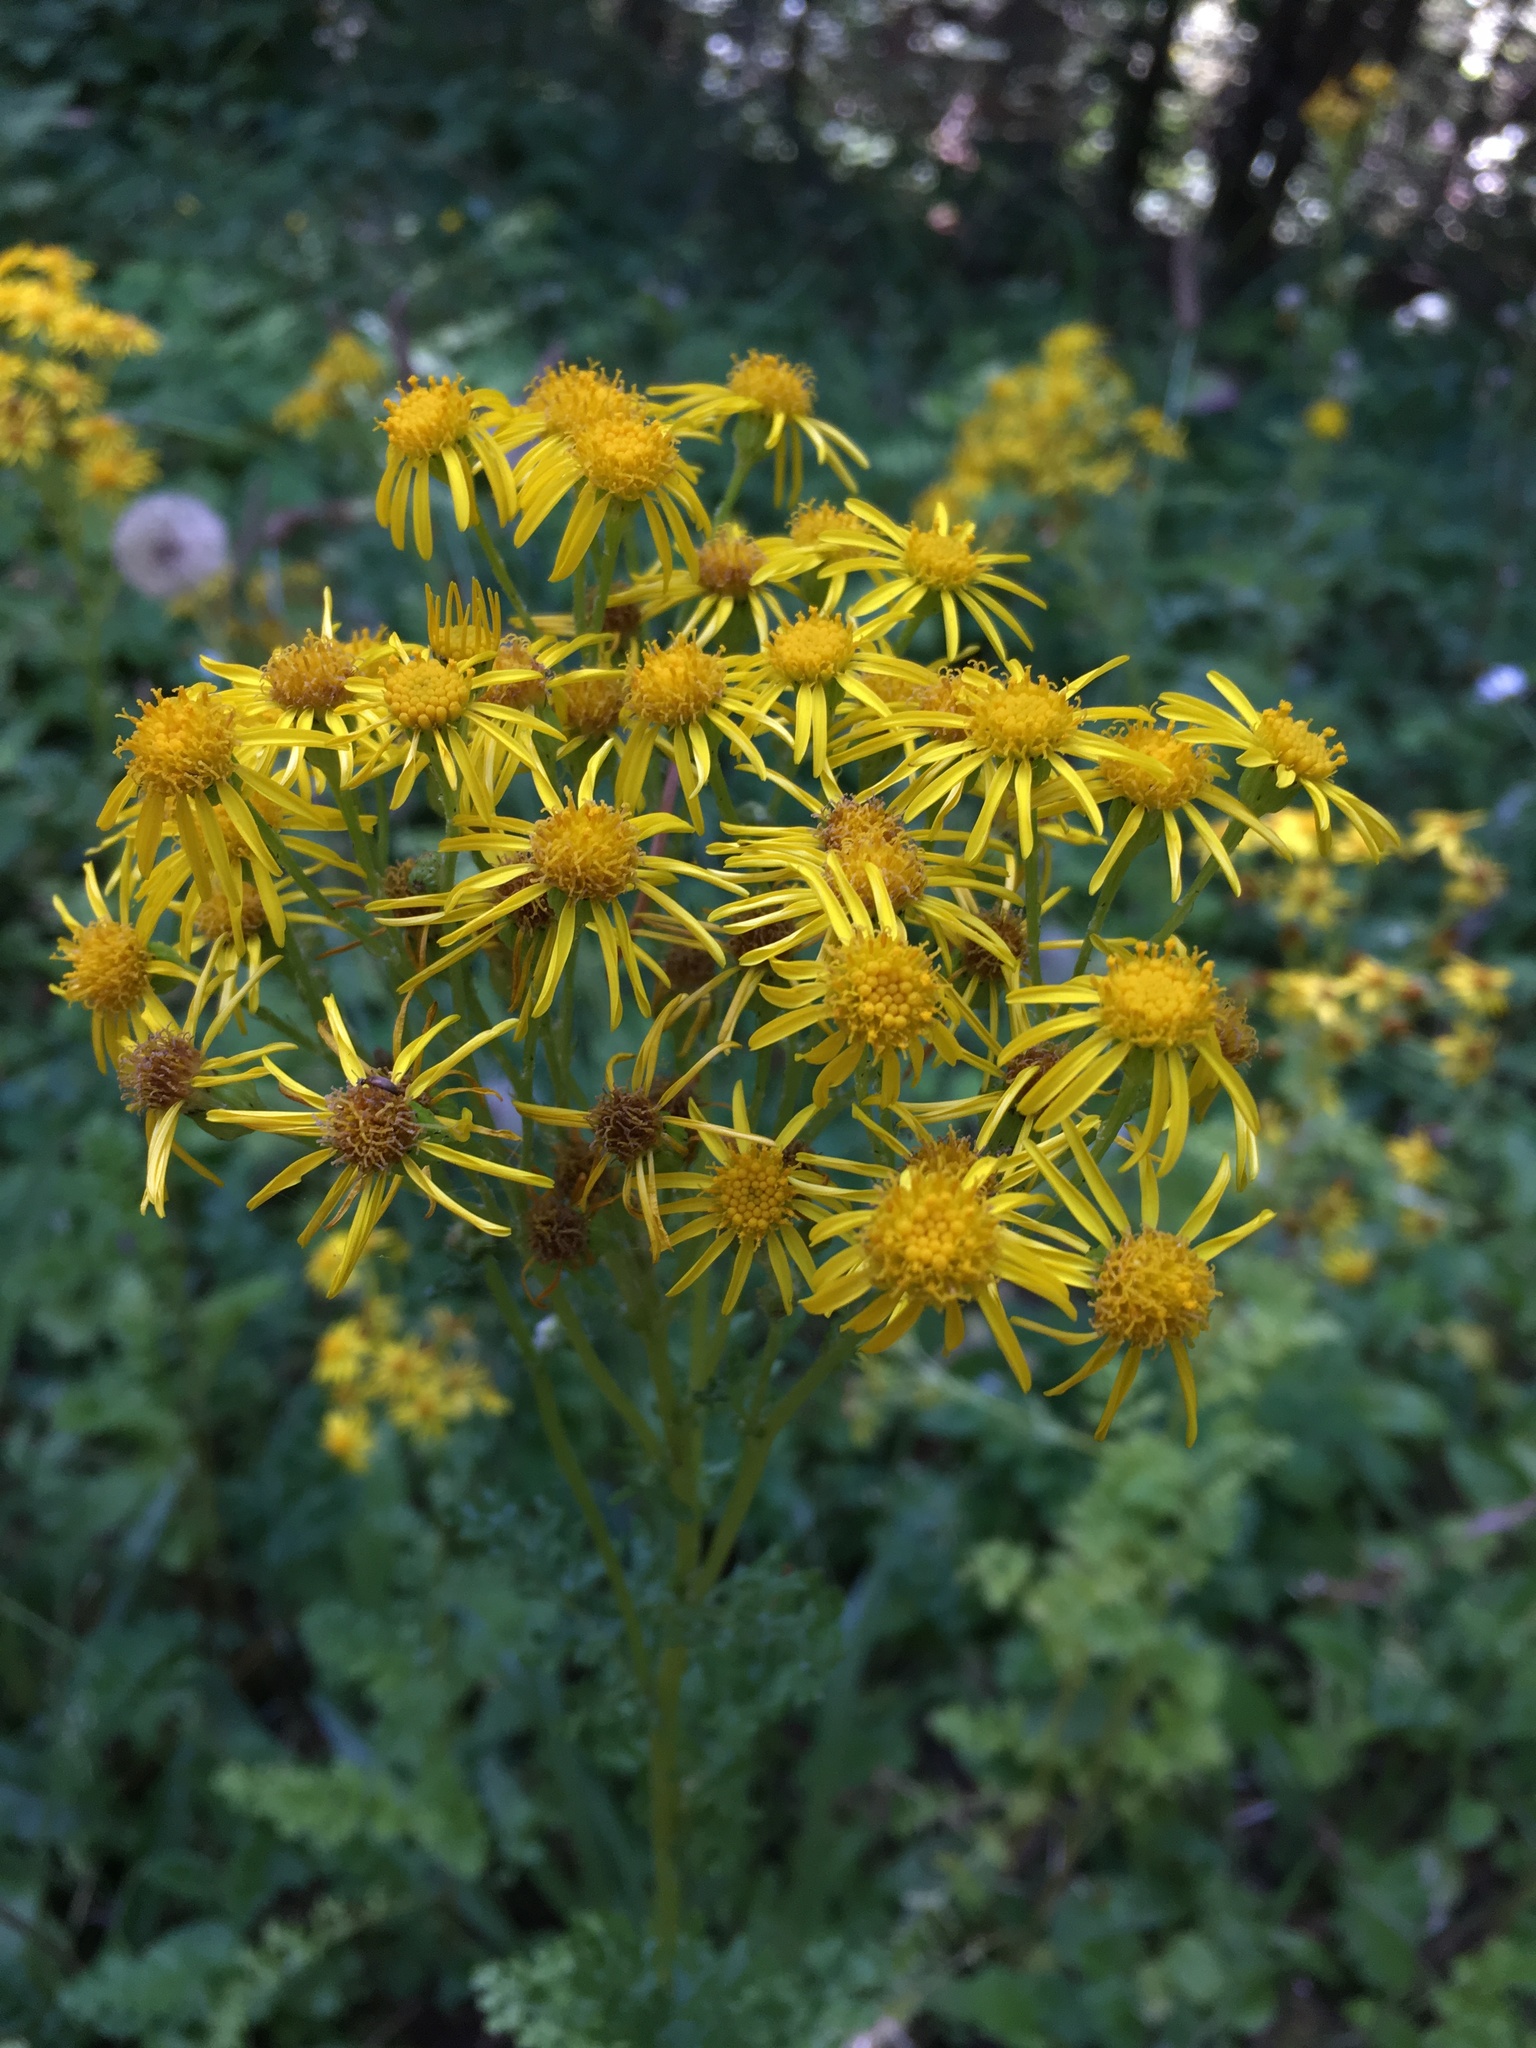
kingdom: Plantae
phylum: Tracheophyta
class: Magnoliopsida
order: Asterales
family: Asteraceae
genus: Jacobaea
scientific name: Jacobaea vulgaris
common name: Stinking willie
